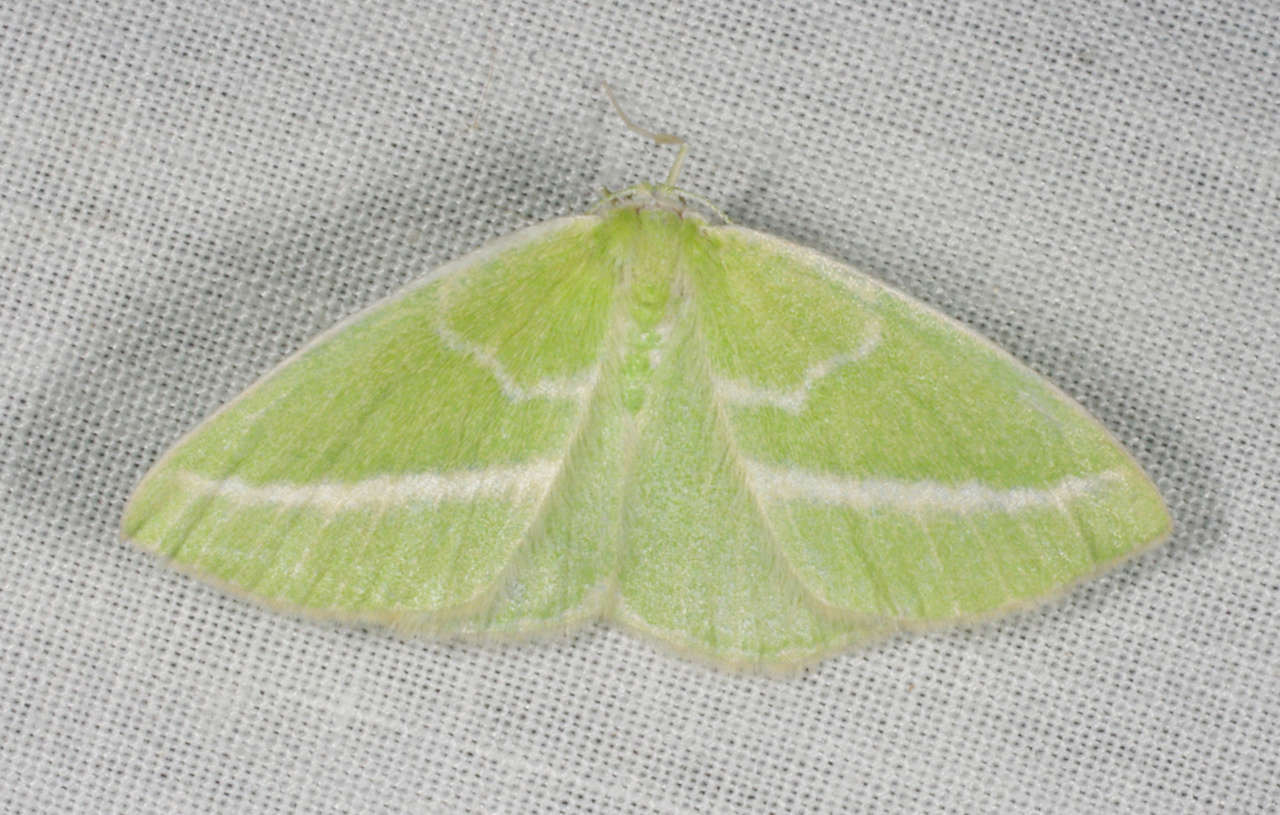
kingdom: Animalia
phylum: Arthropoda
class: Insecta
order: Lepidoptera
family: Geometridae
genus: Iulops
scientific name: Iulops argocrana
